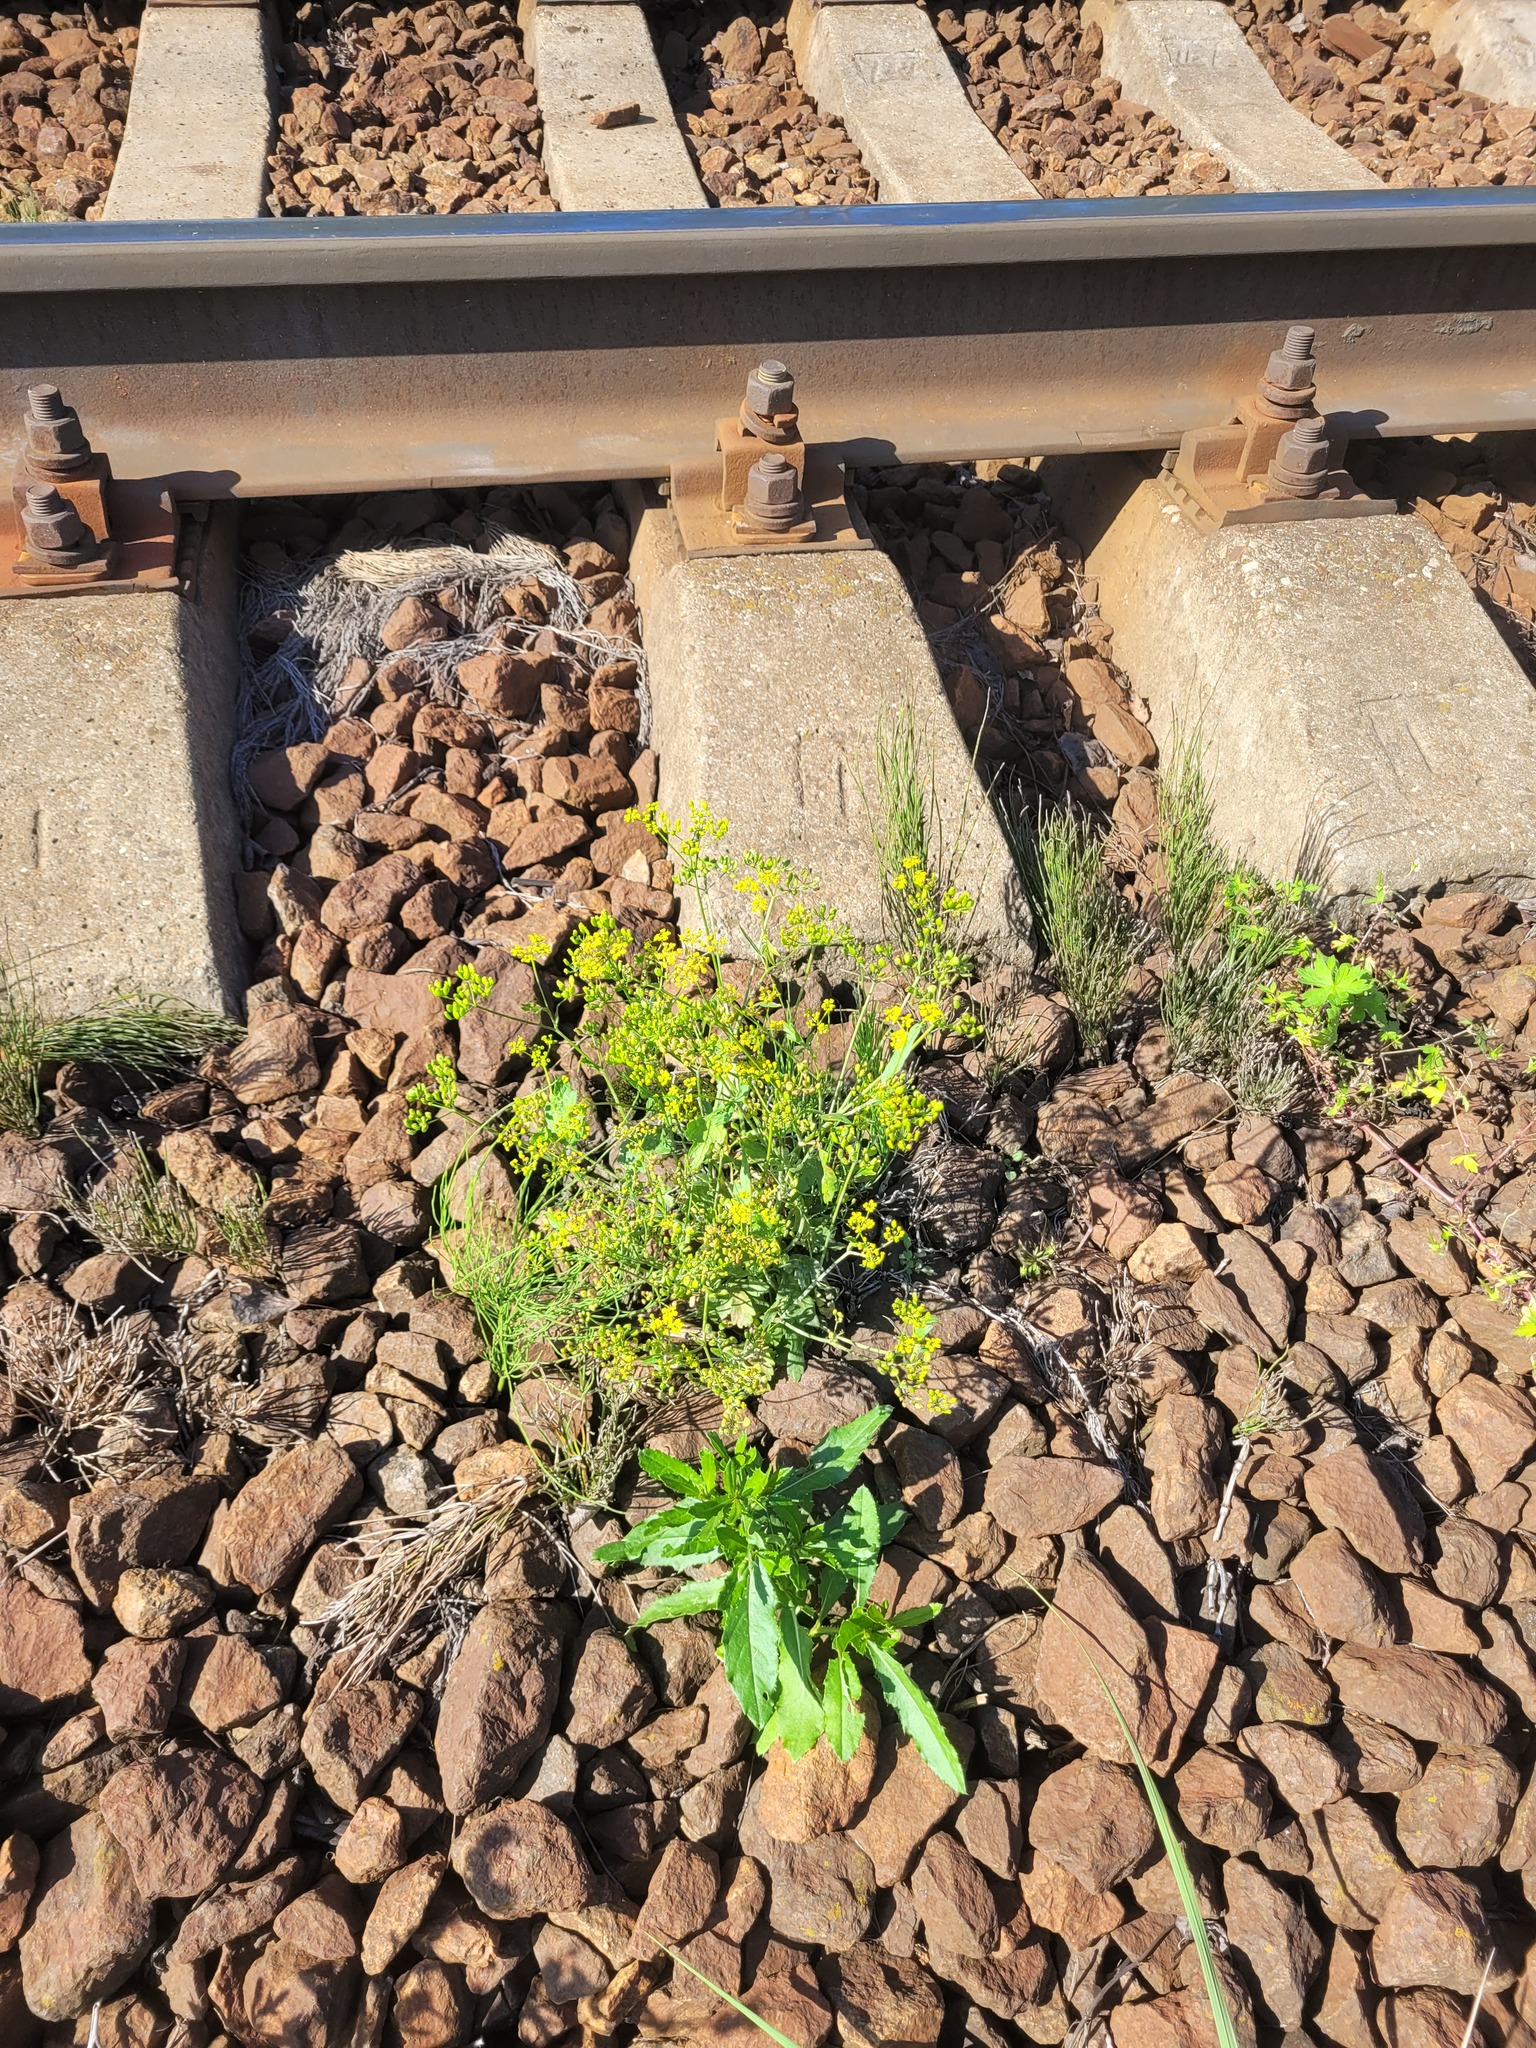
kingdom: Plantae
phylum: Tracheophyta
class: Magnoliopsida
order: Apiales
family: Apiaceae
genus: Pastinaca
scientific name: Pastinaca sativa
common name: Wild parsnip
